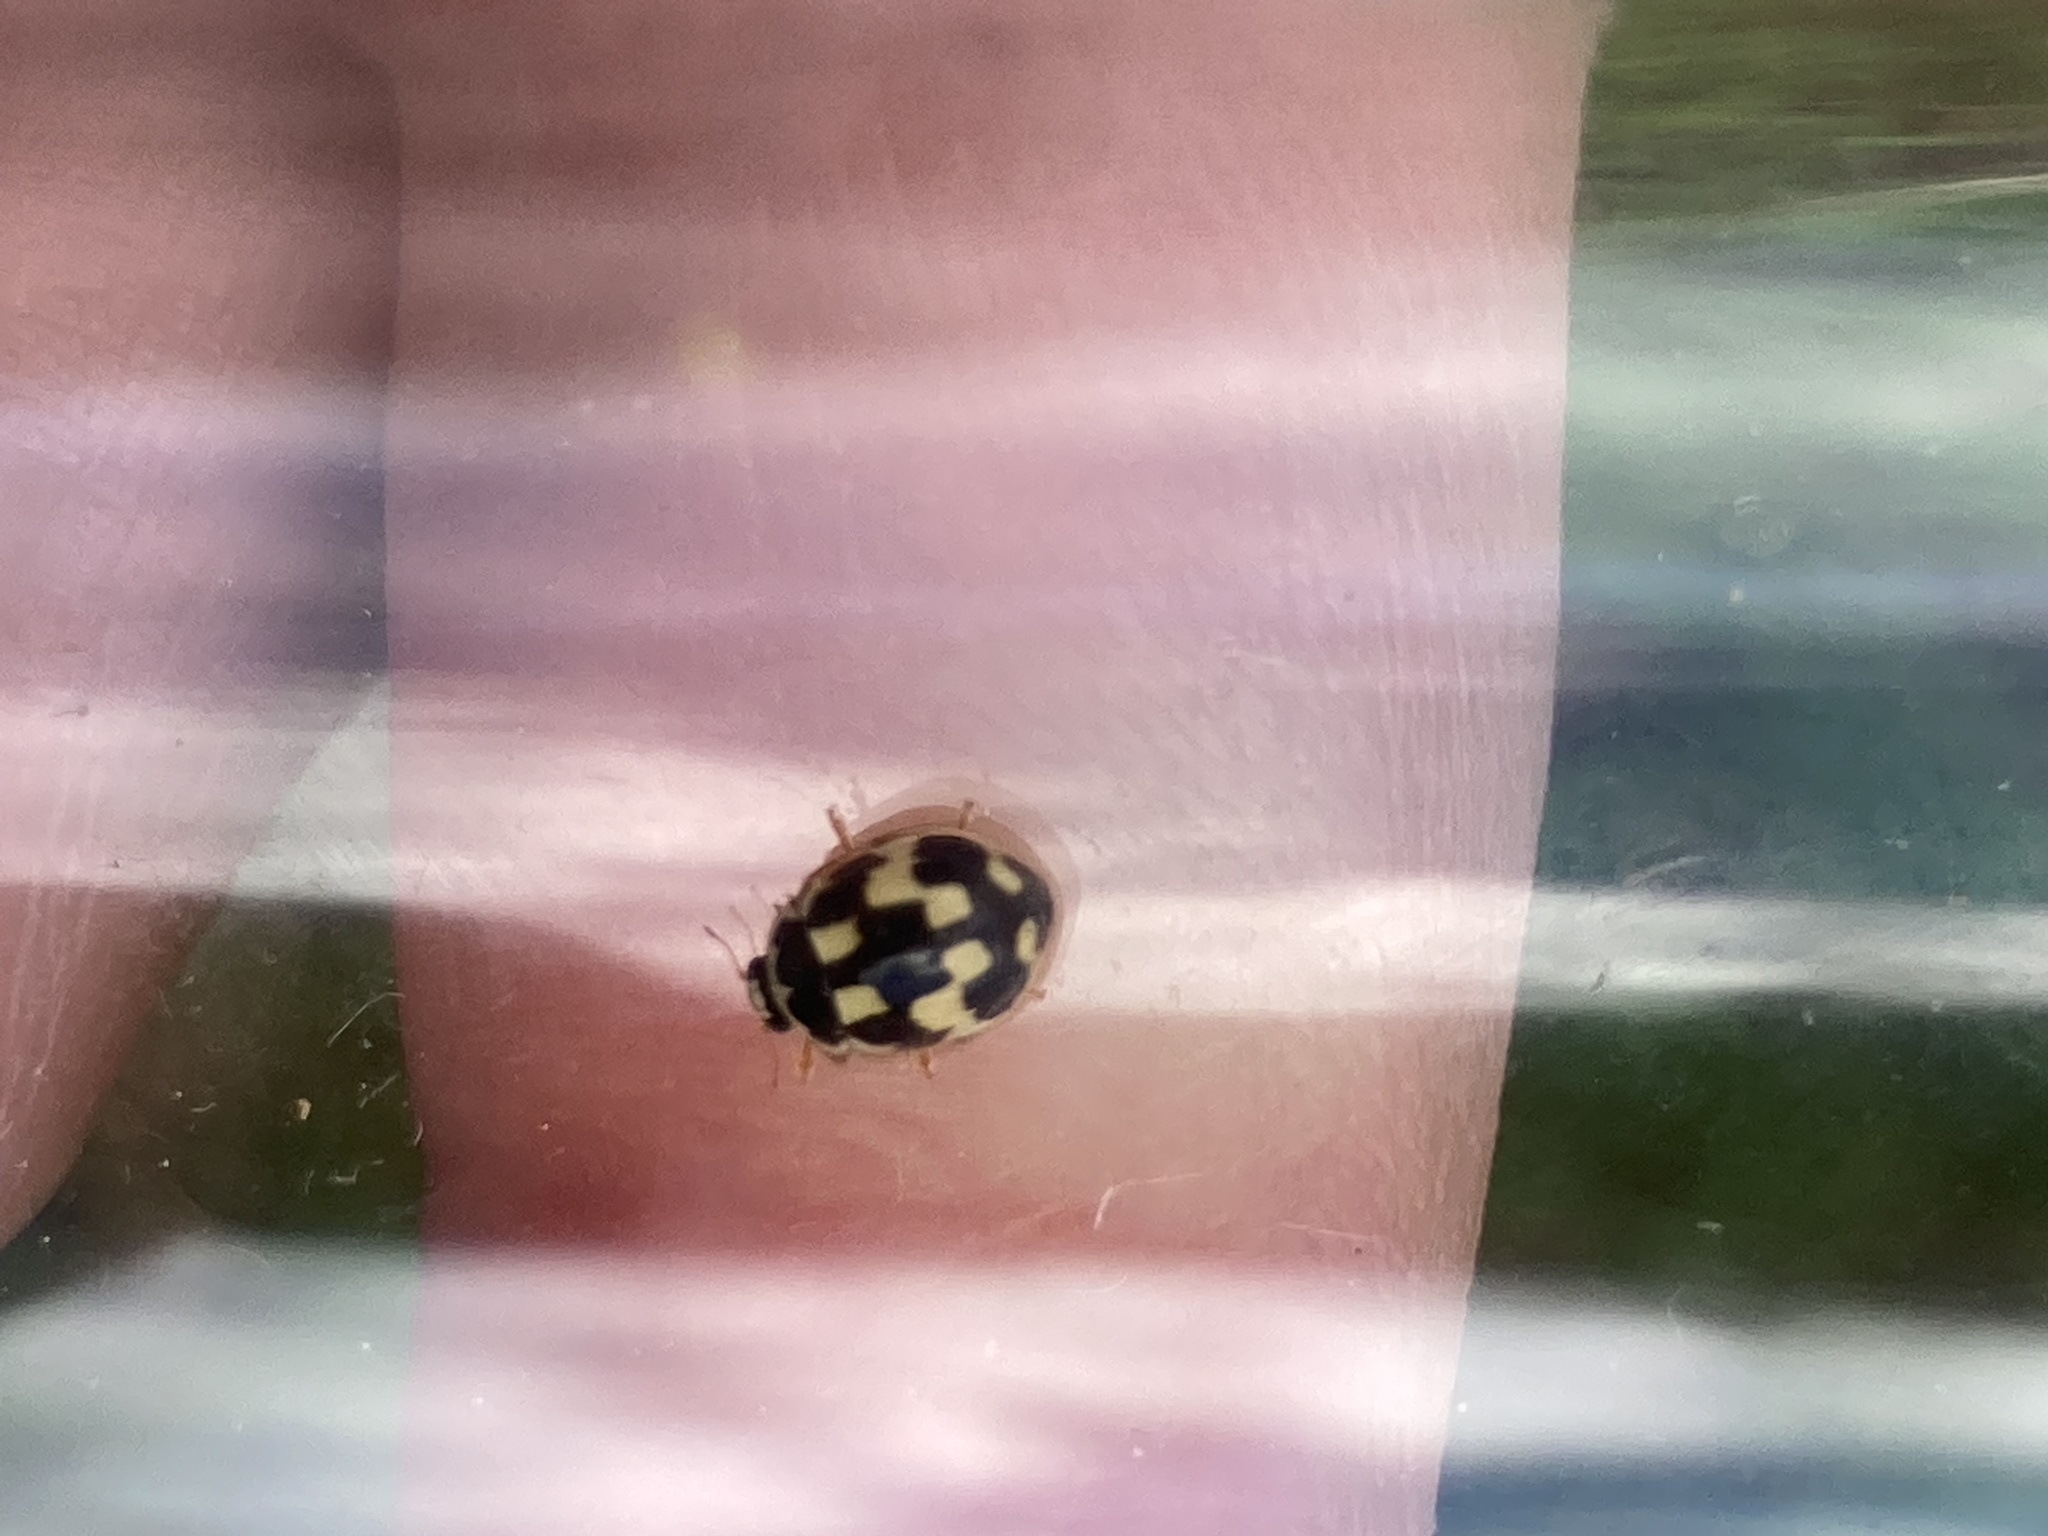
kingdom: Animalia
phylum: Arthropoda
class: Insecta
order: Coleoptera
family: Coccinellidae
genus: Propylaea
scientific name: Propylaea quatuordecimpunctata
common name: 14-spotted ladybird beetle
